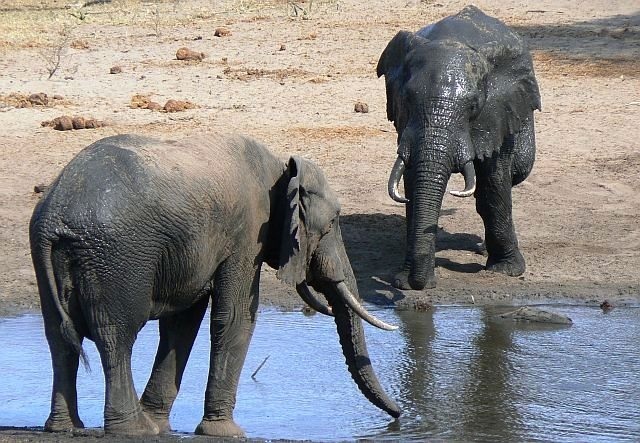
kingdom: Animalia
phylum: Chordata
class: Mammalia
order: Proboscidea
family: Elephantidae
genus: Loxodonta
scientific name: Loxodonta africana
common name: African elephant
